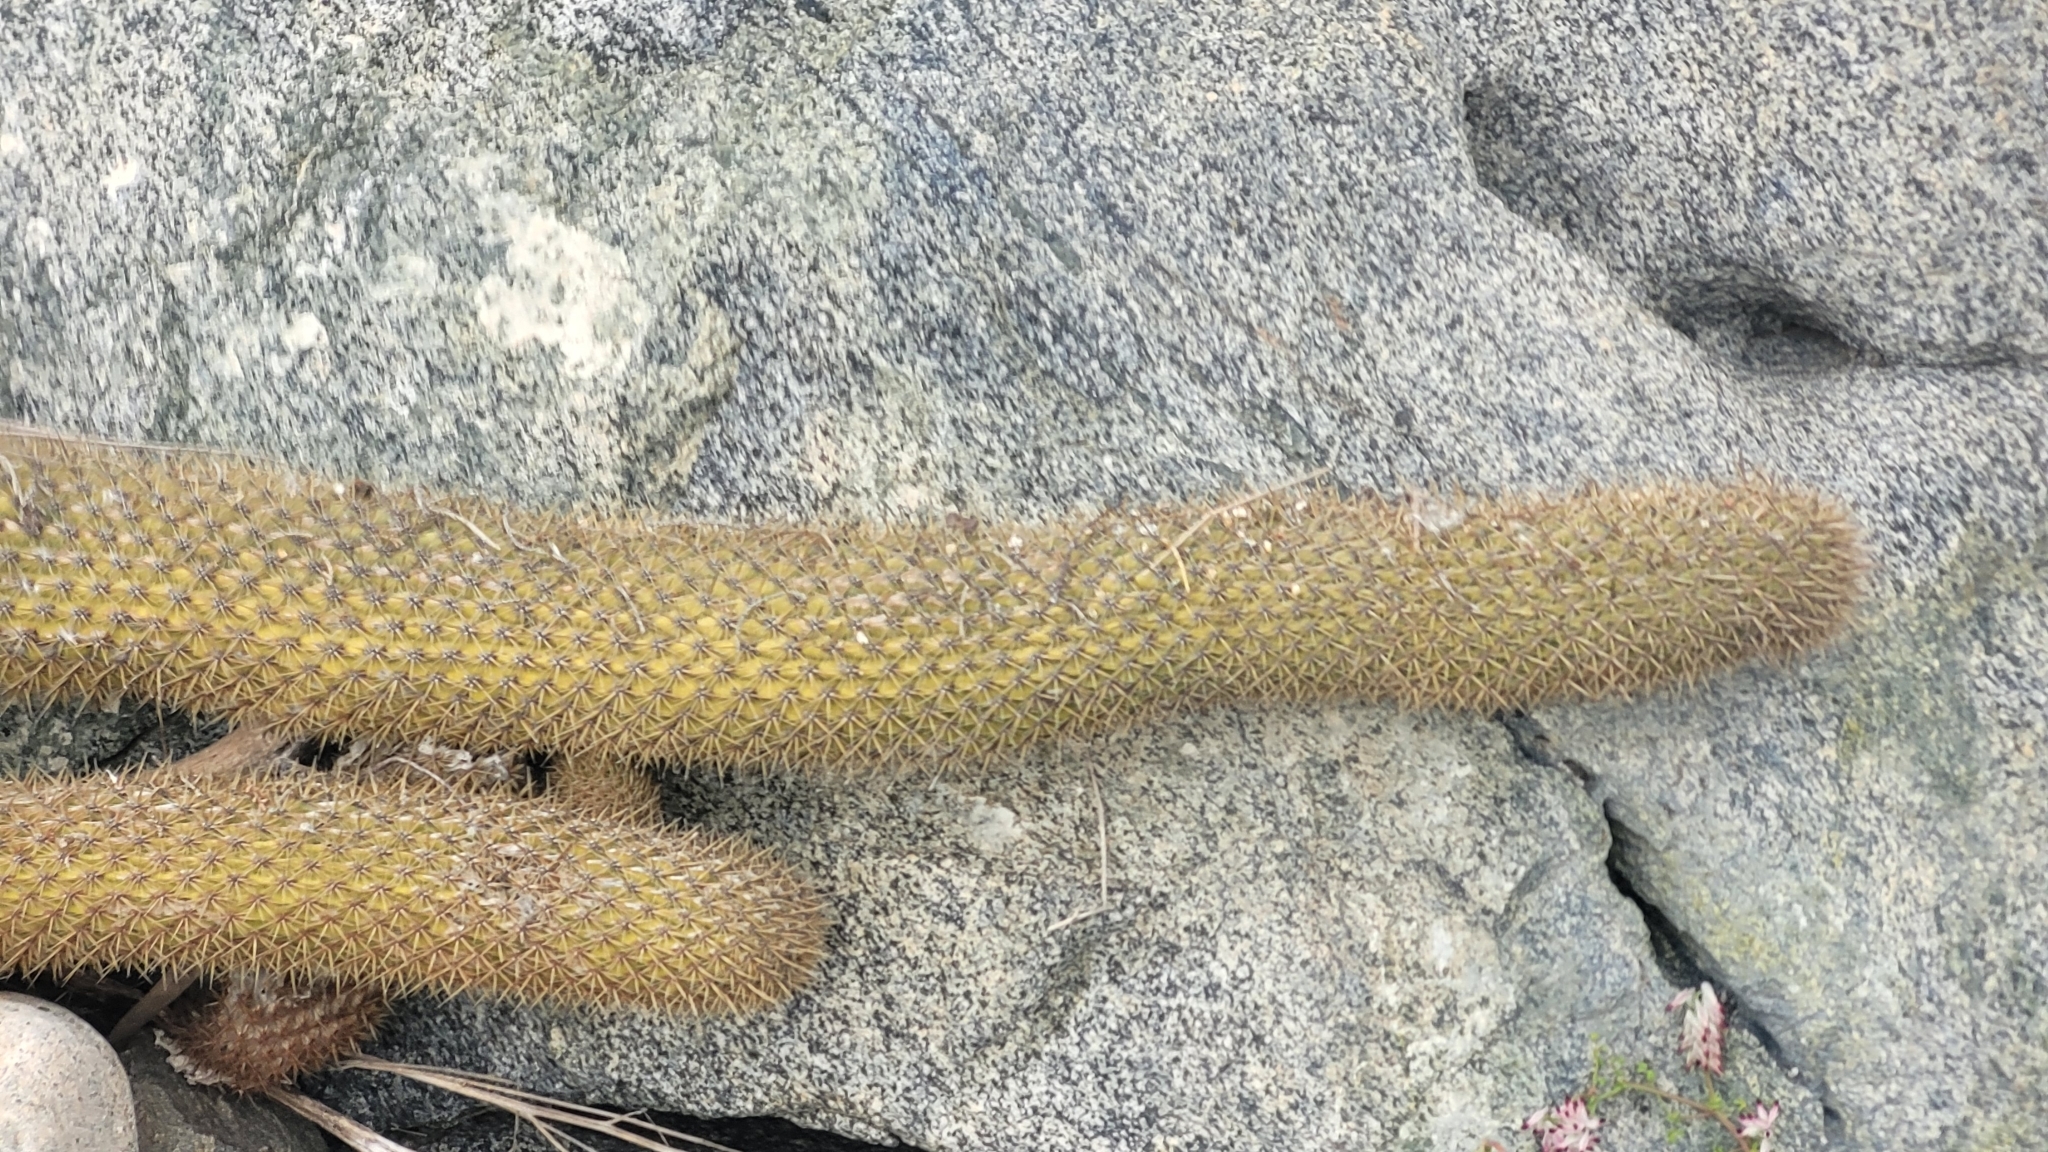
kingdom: Plantae
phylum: Tracheophyta
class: Magnoliopsida
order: Caryophyllales
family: Cactaceae
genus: Leucostele
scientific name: Leucostele litoralis
